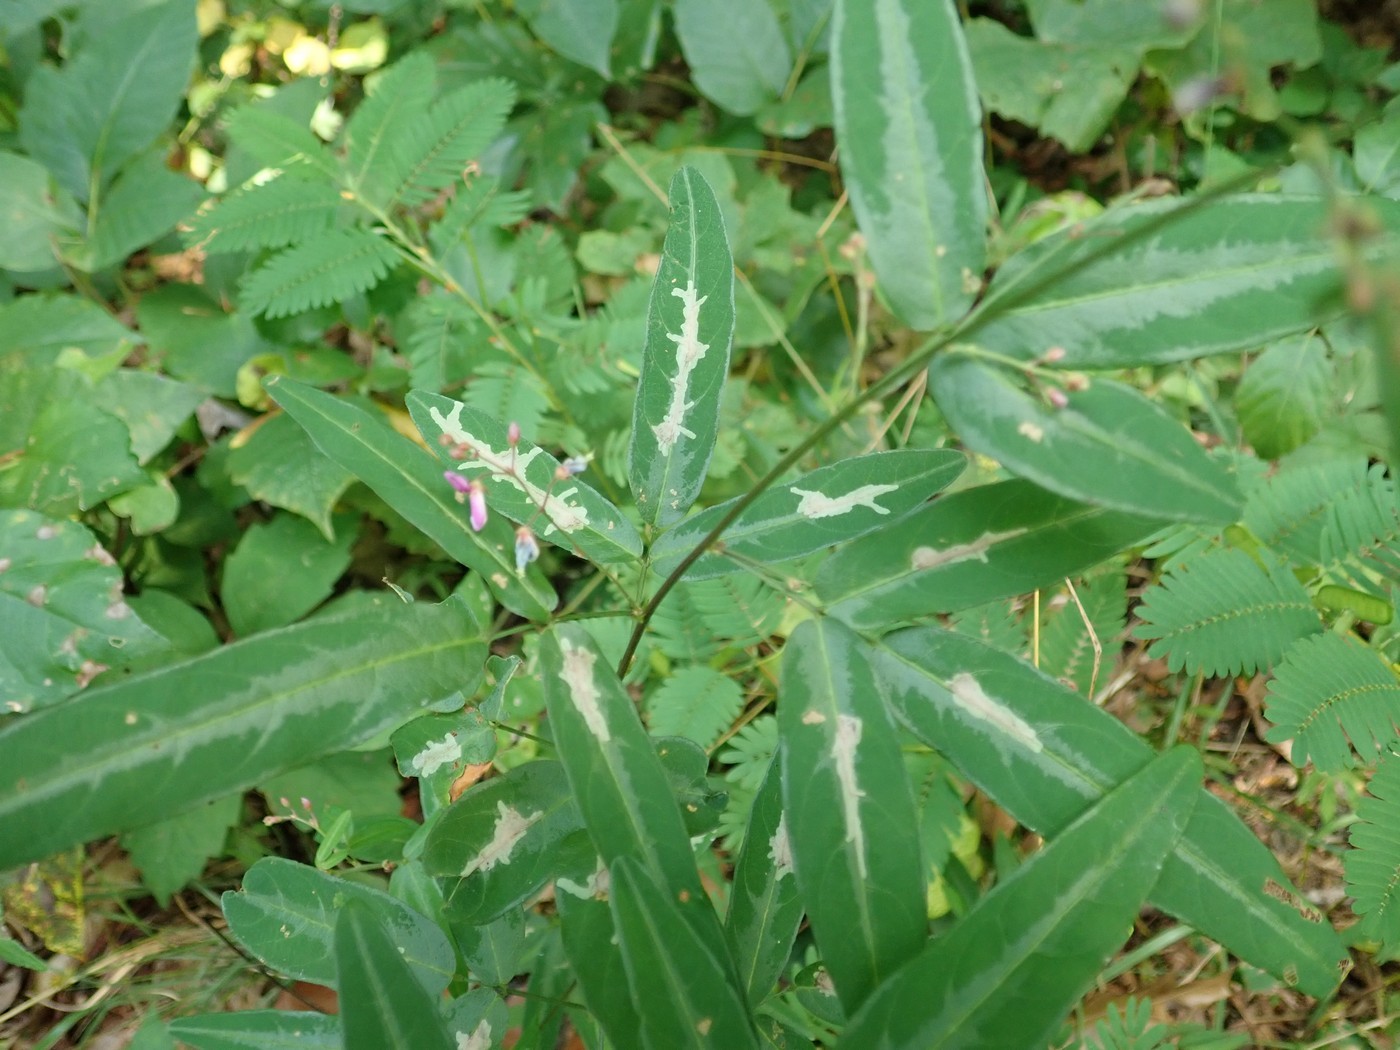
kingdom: Animalia
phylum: Arthropoda
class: Insecta
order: Lepidoptera
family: Gracillariidae
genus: Parectopa
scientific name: Parectopa robiniella
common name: Locust digitate leafminer
